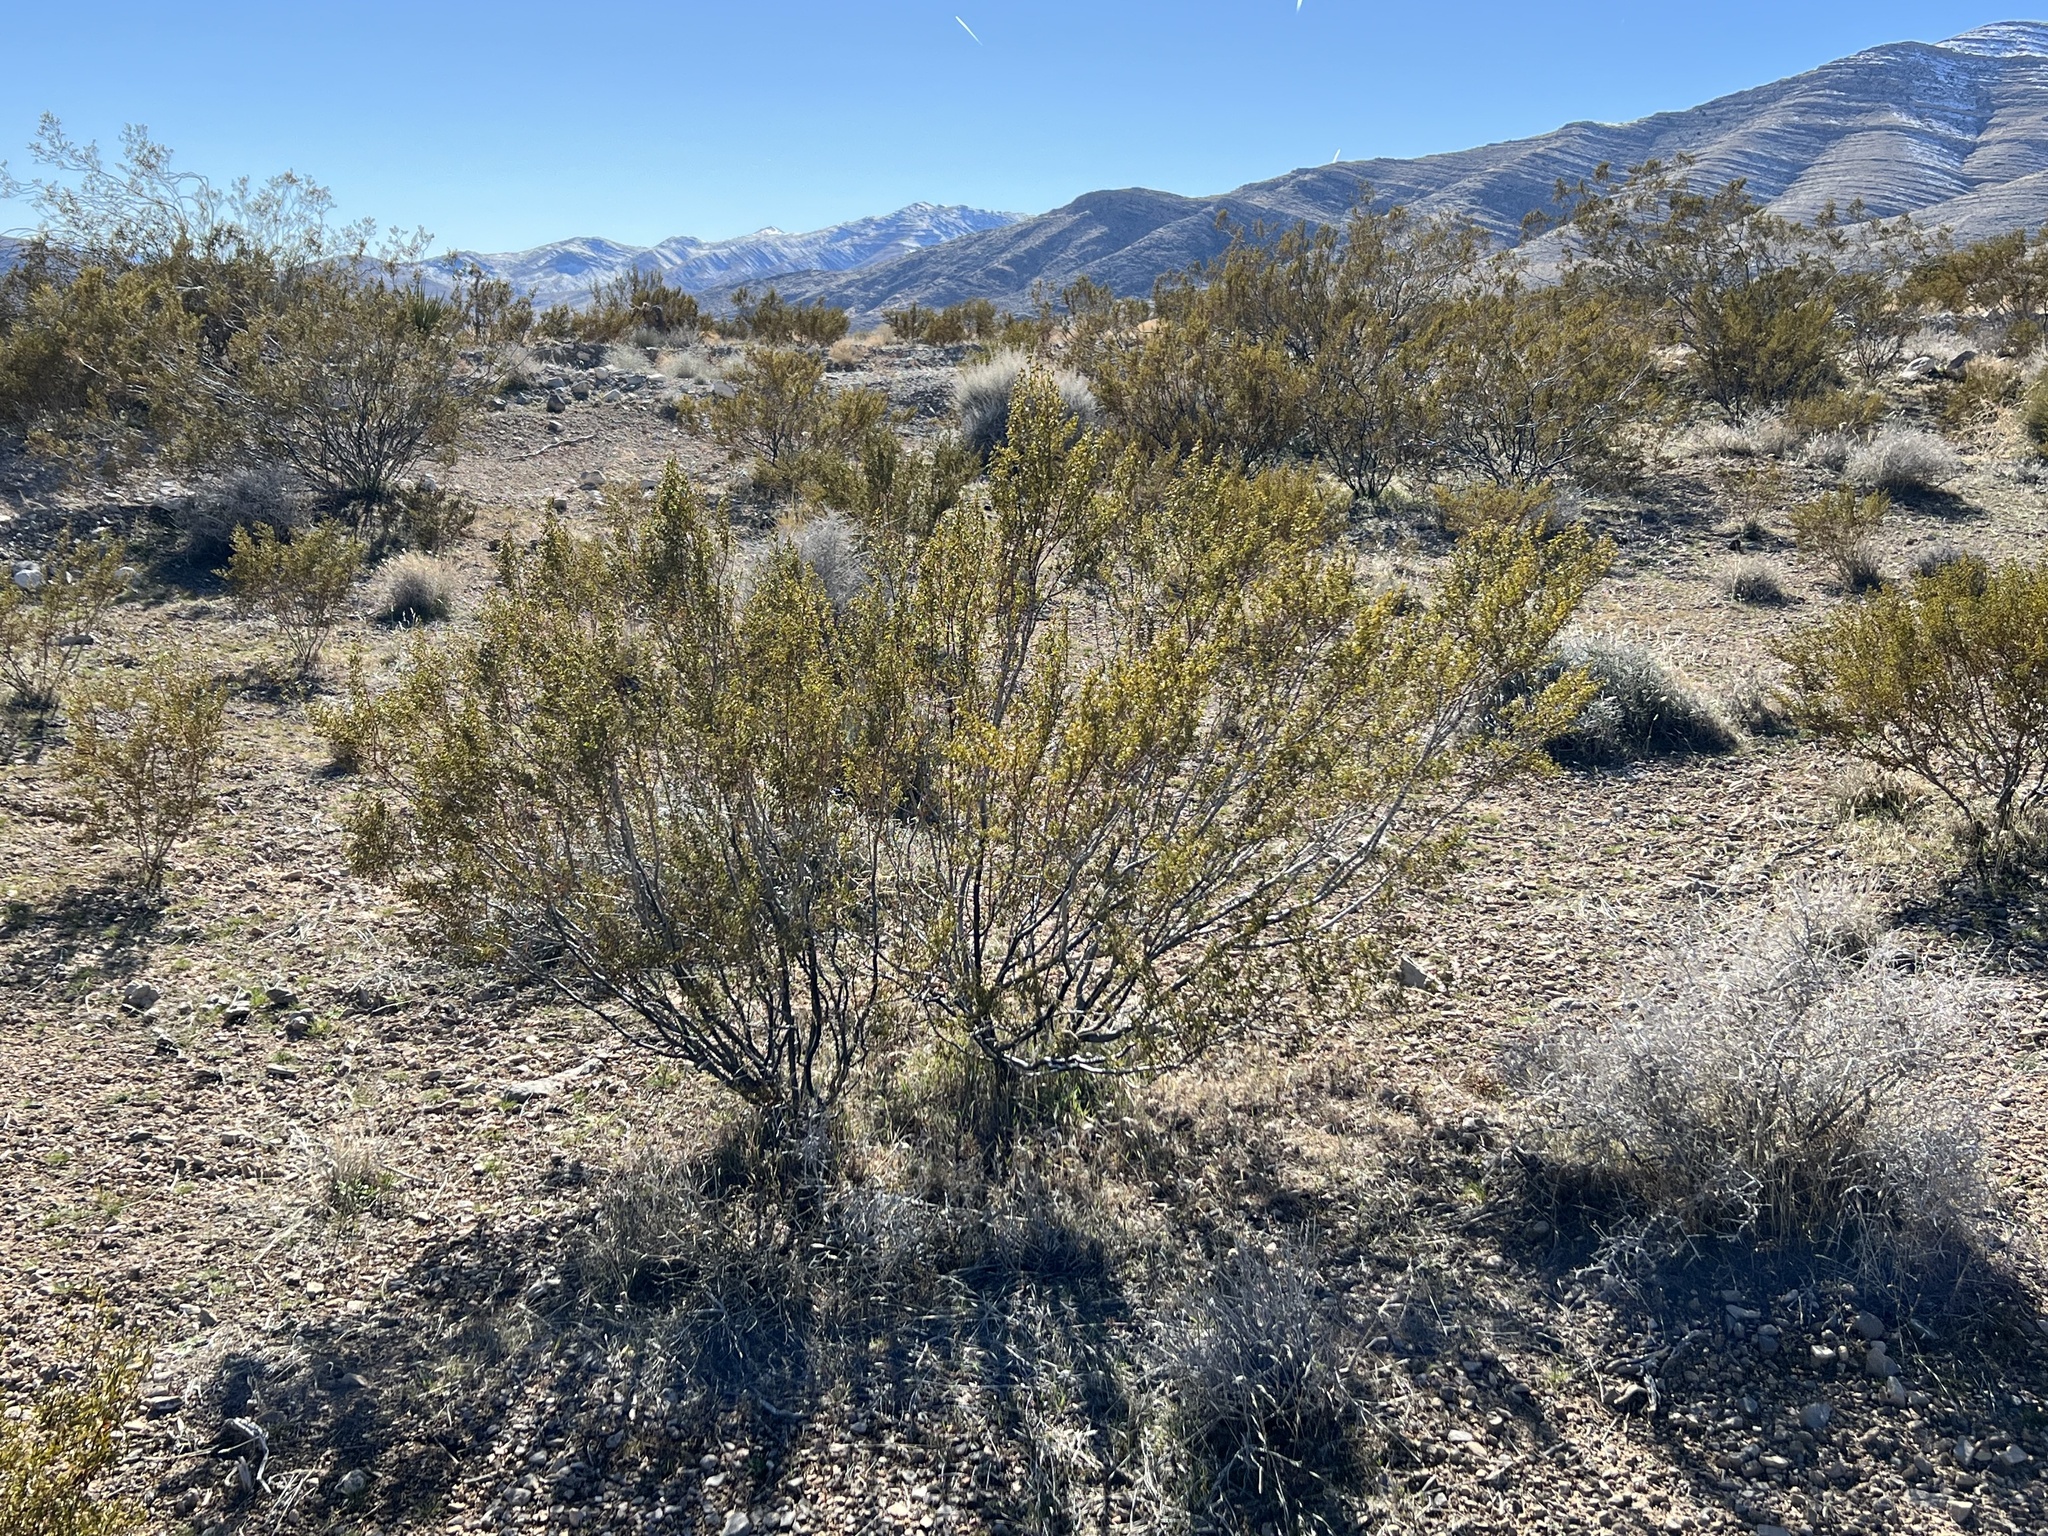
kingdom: Plantae
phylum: Tracheophyta
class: Magnoliopsida
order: Zygophyllales
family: Zygophyllaceae
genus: Larrea
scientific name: Larrea tridentata
